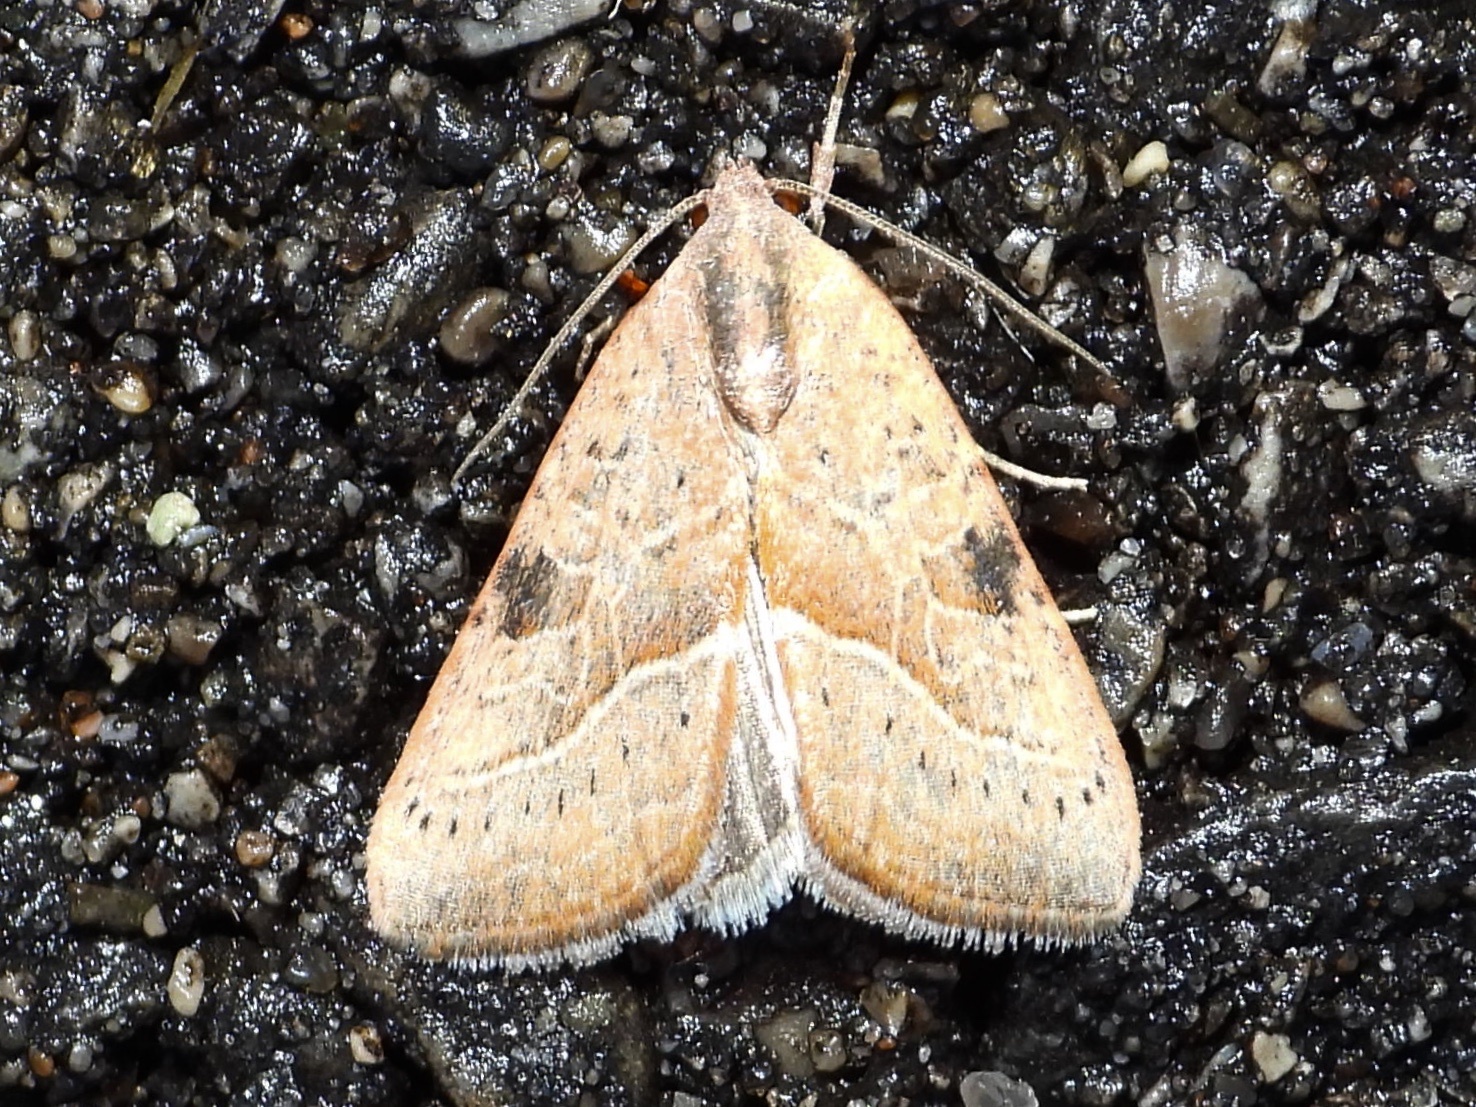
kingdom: Animalia
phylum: Arthropoda
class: Insecta
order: Lepidoptera
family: Noctuidae
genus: Galgula
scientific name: Galgula partita
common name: Wedgeling
